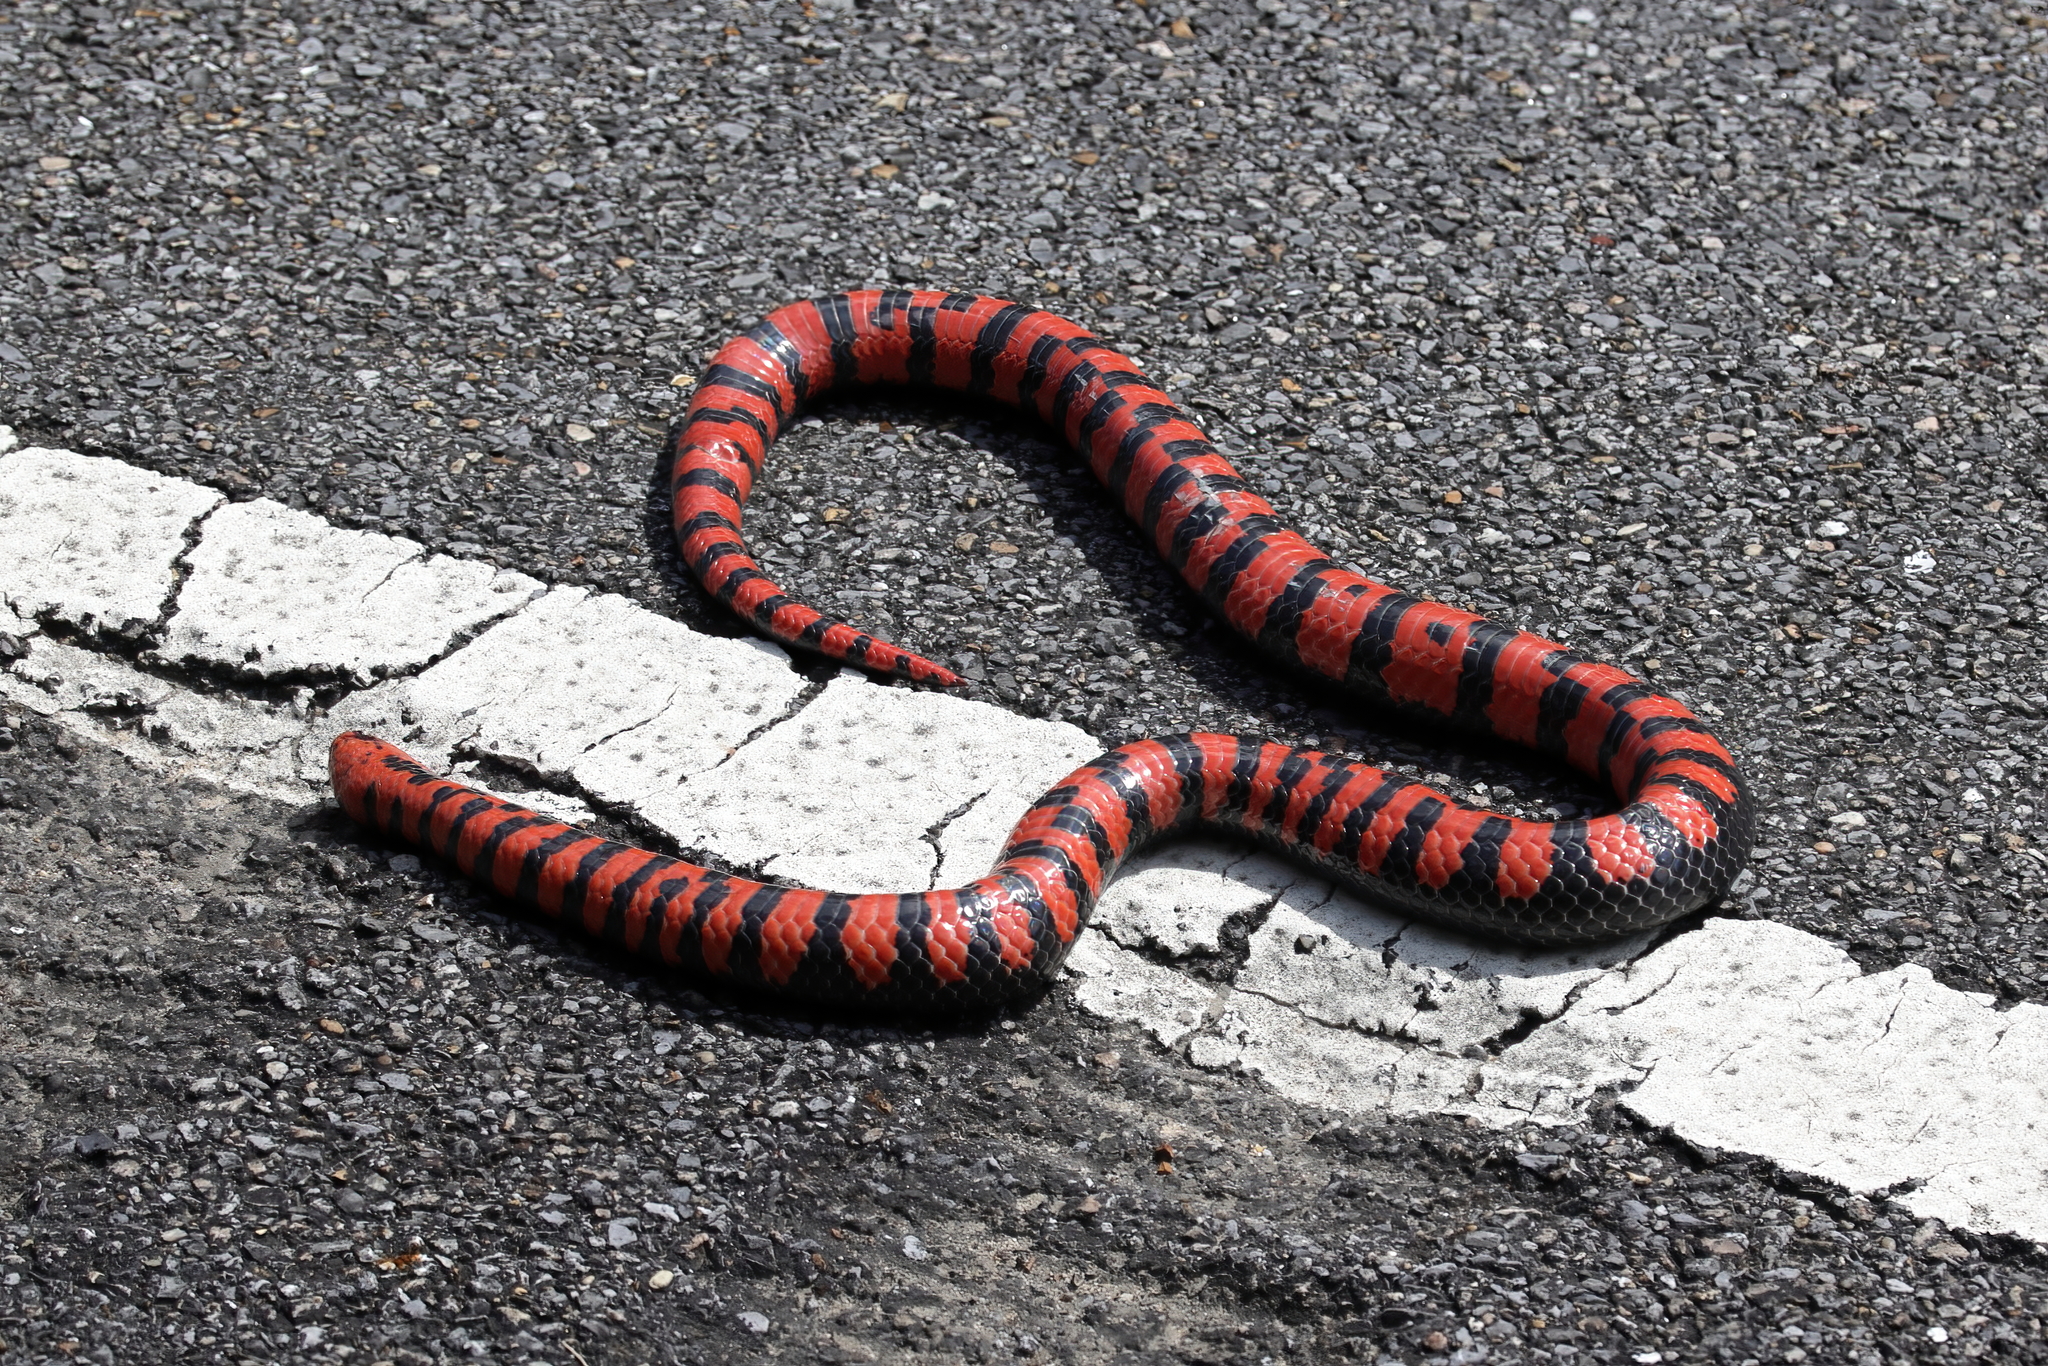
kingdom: Animalia
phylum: Chordata
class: Squamata
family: Colubridae
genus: Farancia
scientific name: Farancia abacura
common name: Mud snake
